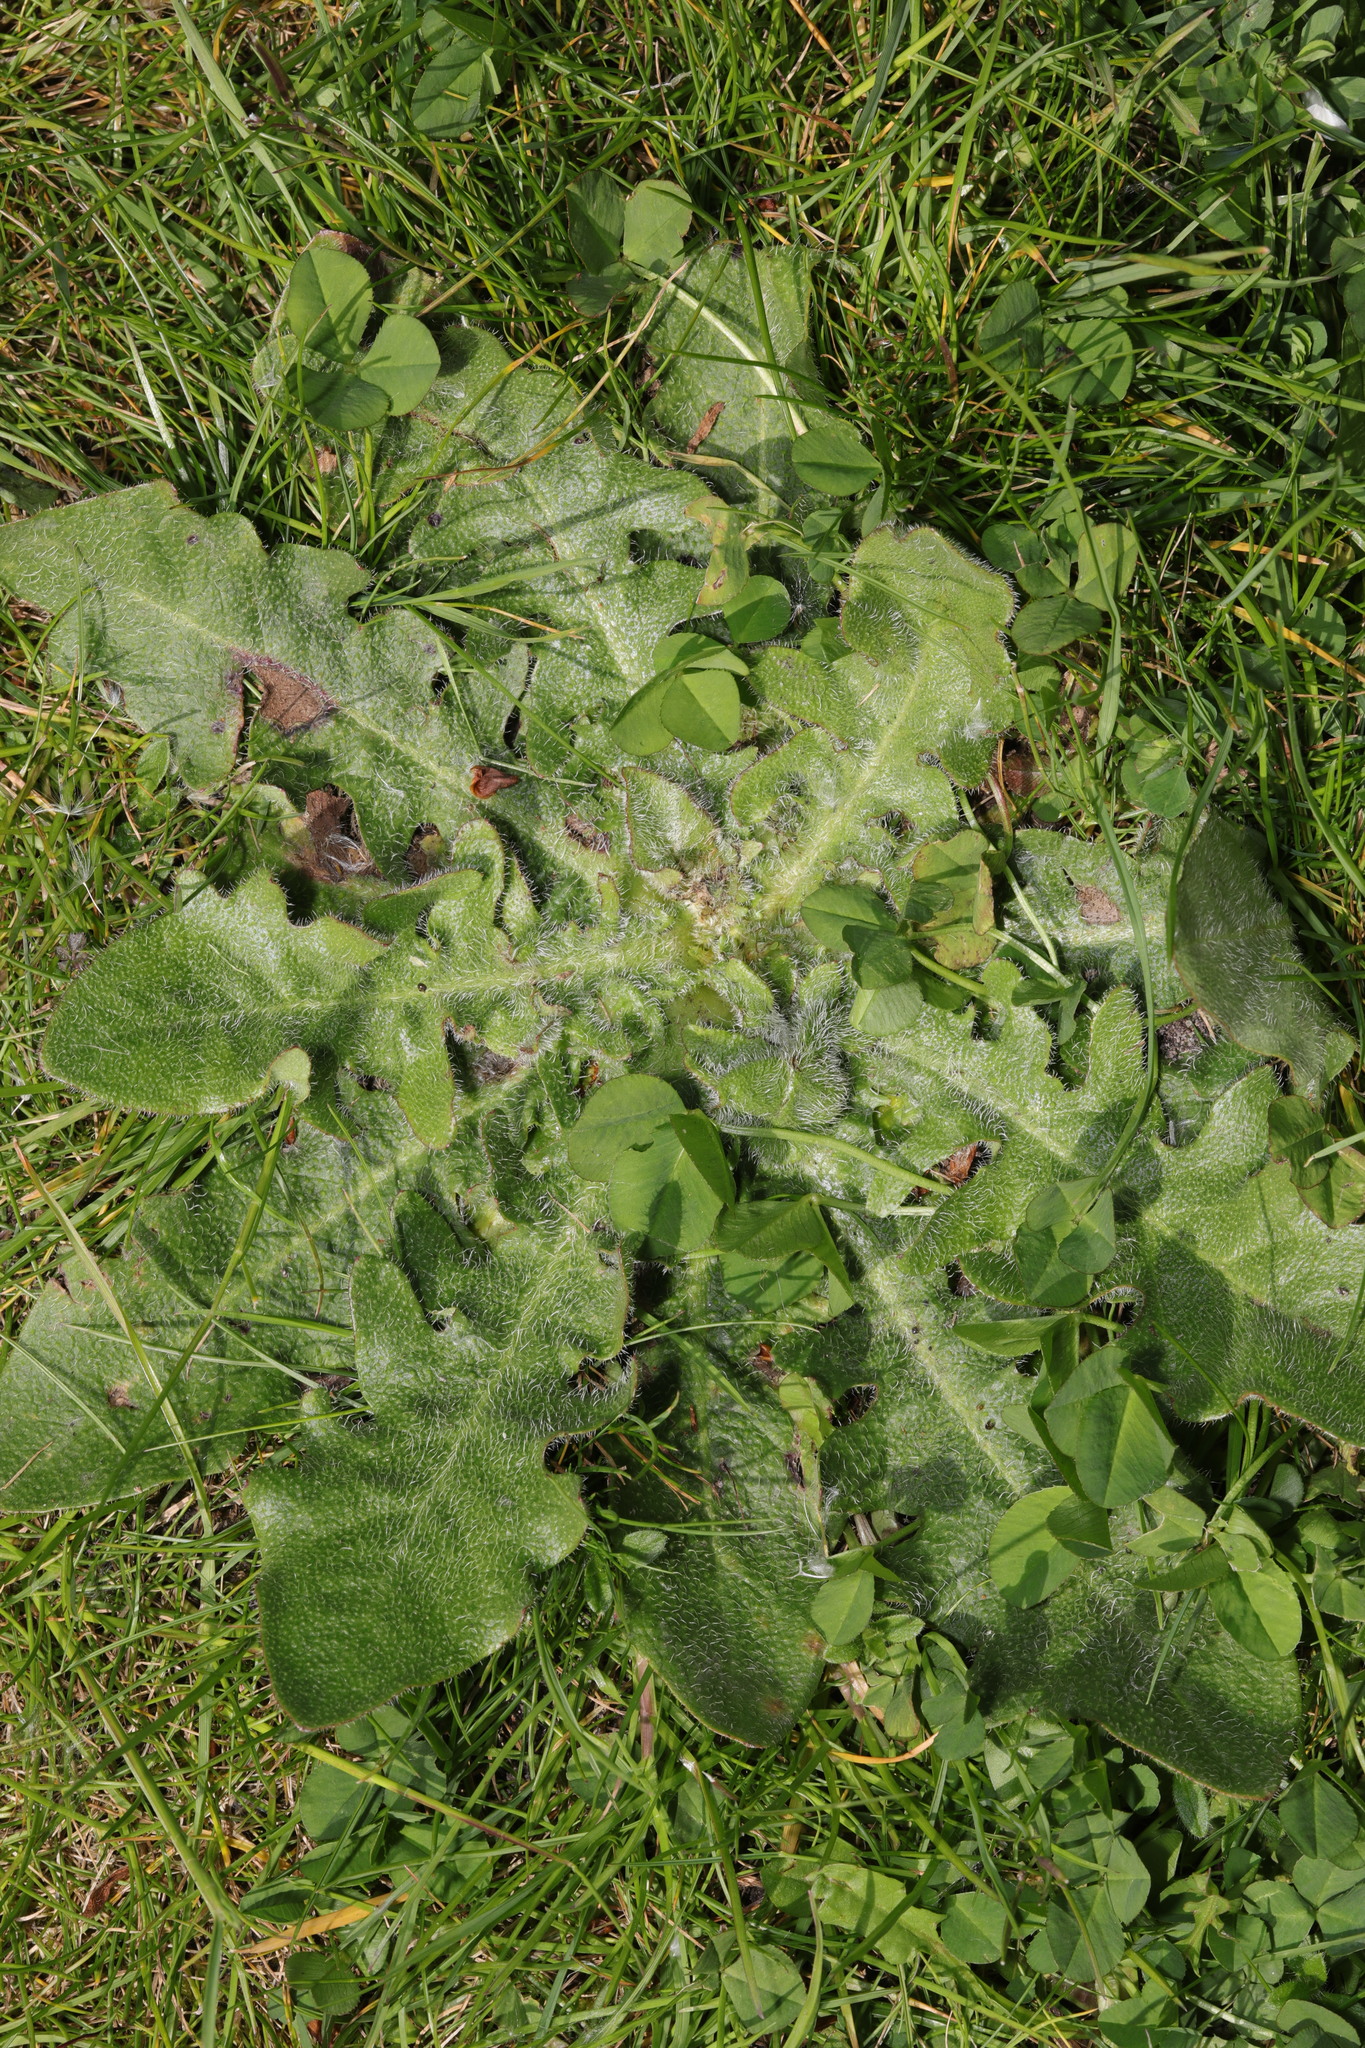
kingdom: Plantae
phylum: Tracheophyta
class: Magnoliopsida
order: Asterales
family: Asteraceae
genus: Hypochaeris
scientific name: Hypochaeris radicata
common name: Flatweed
